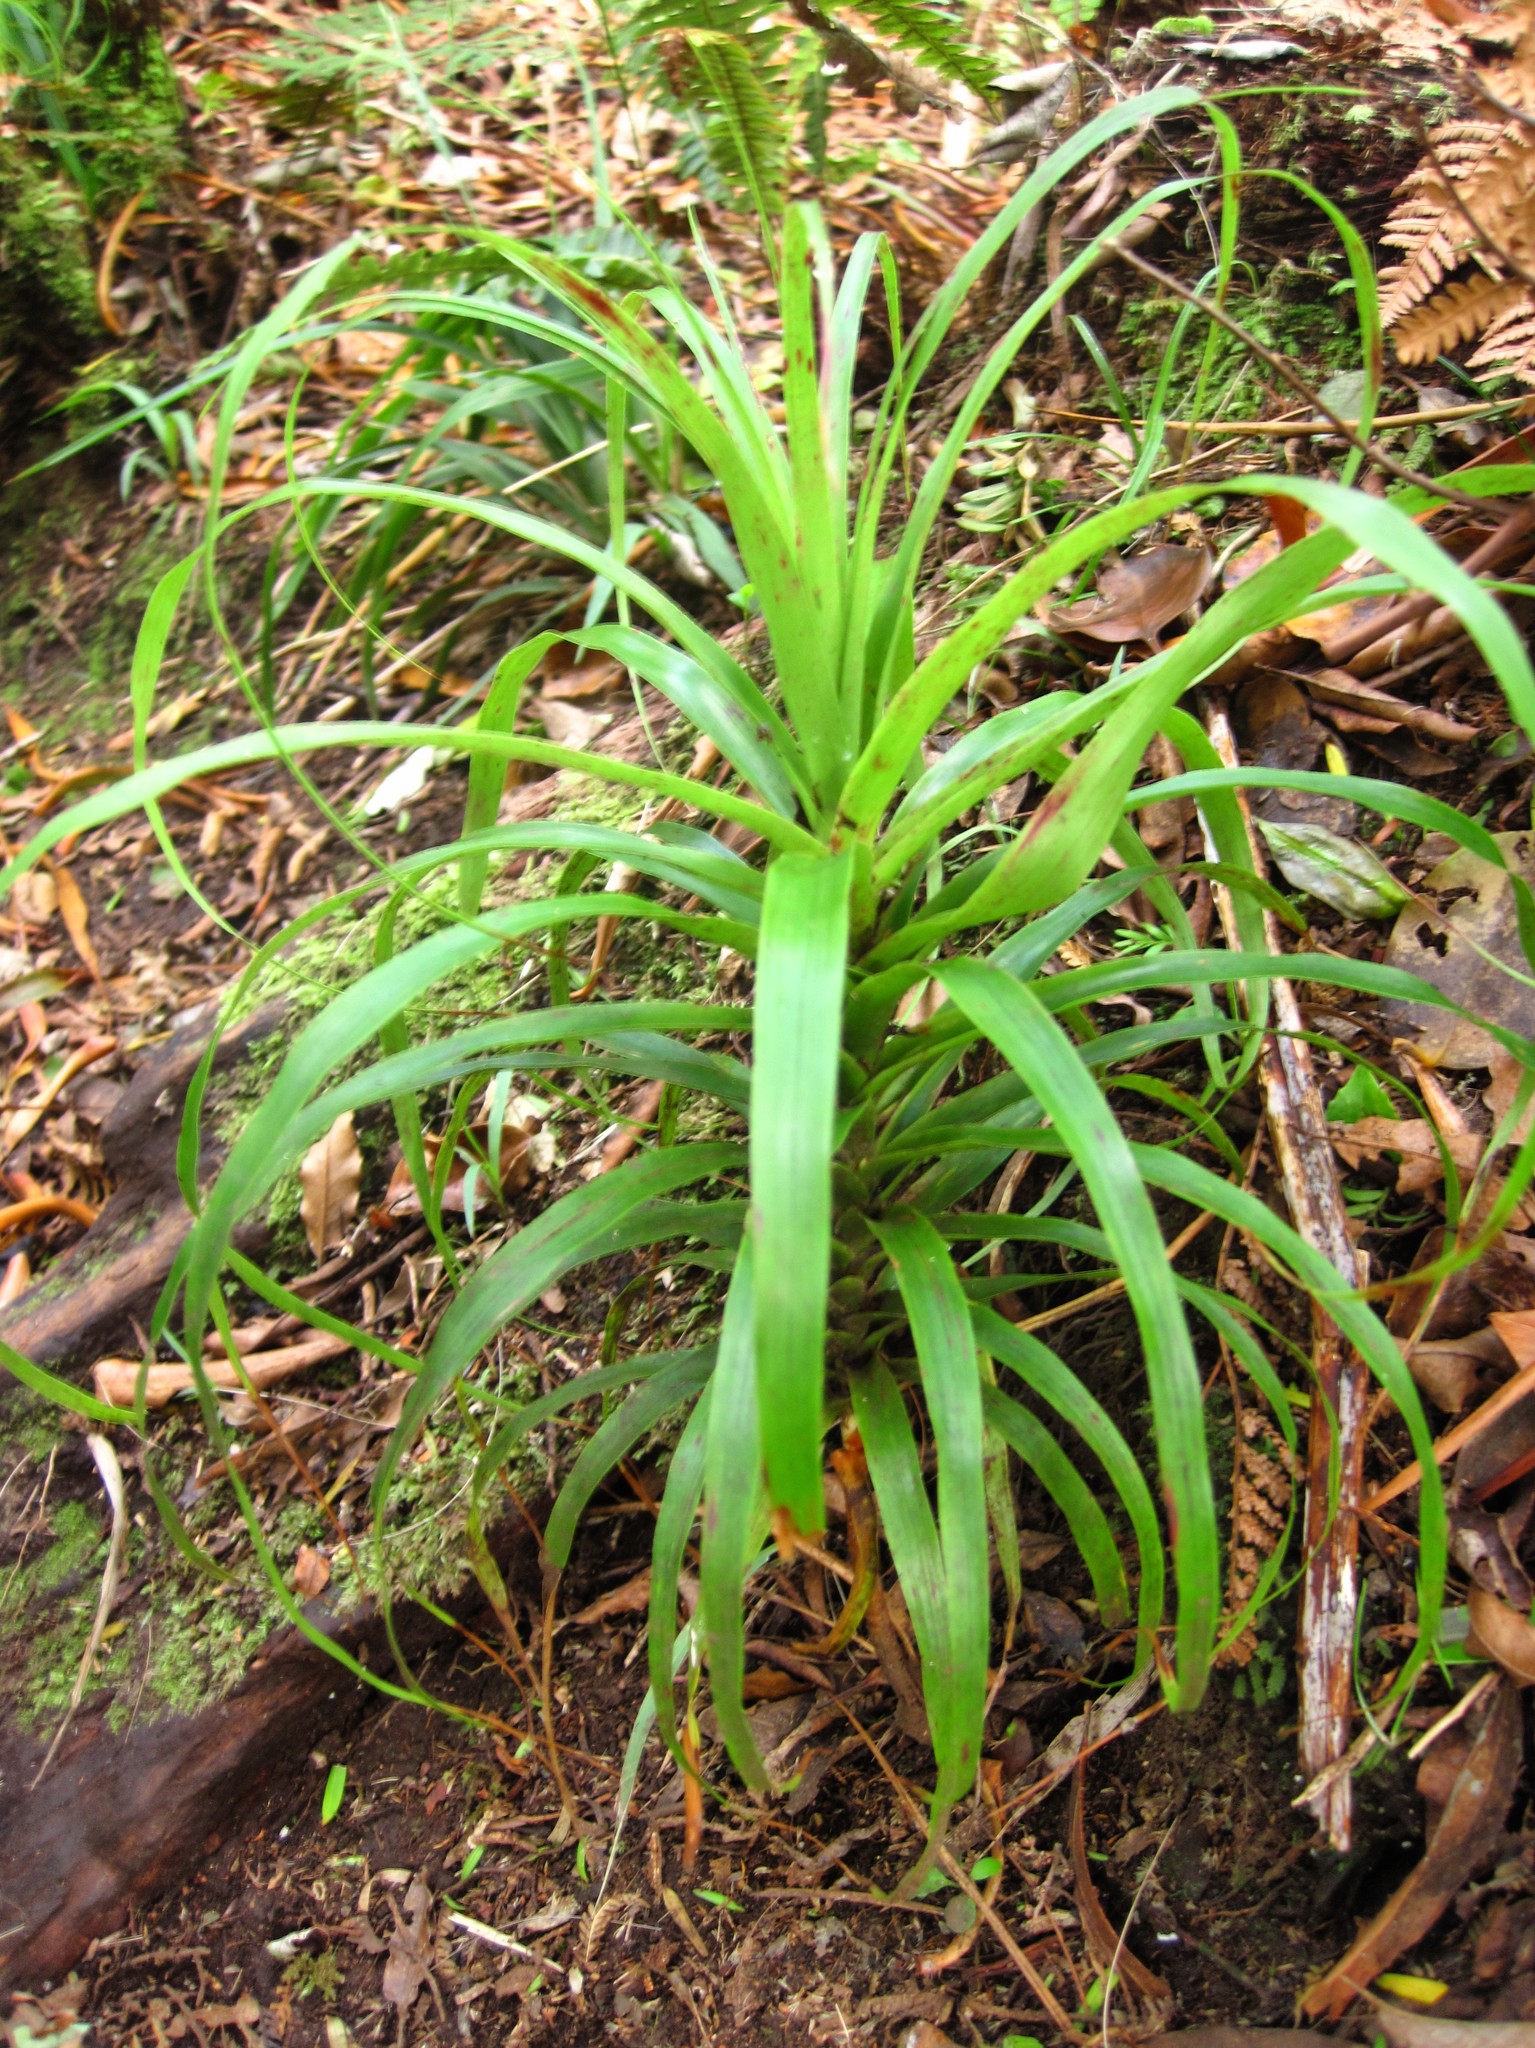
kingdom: Plantae
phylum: Tracheophyta
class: Magnoliopsida
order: Ericales
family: Ericaceae
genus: Dracophyllum
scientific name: Dracophyllum latifolium
